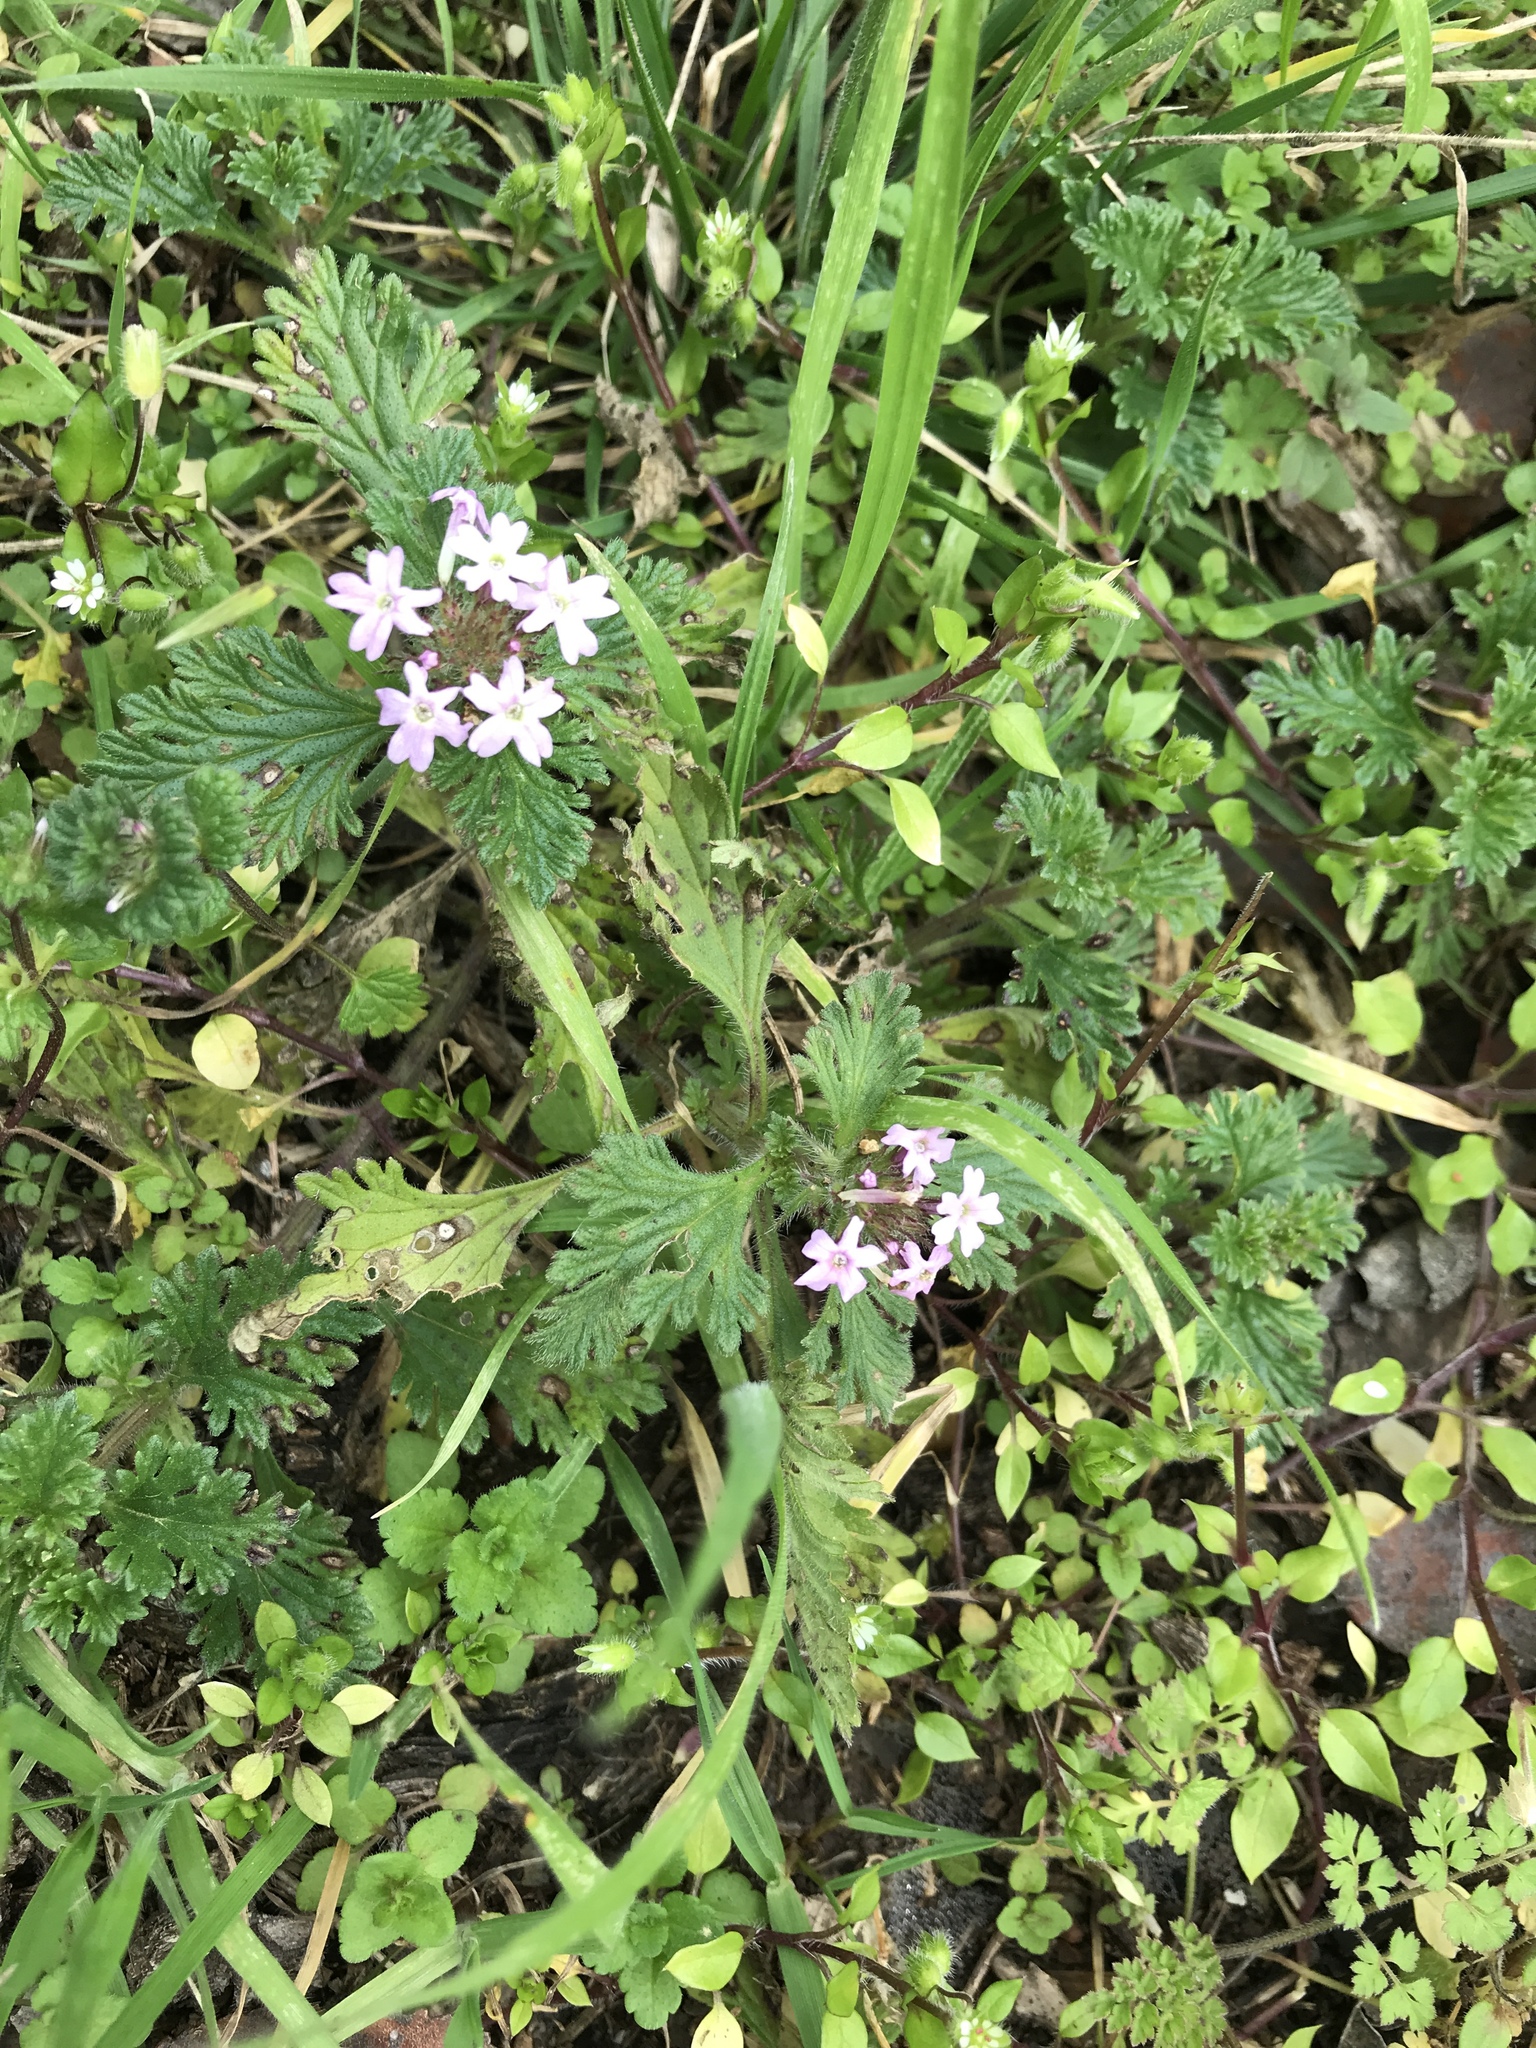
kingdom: Plantae
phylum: Tracheophyta
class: Magnoliopsida
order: Lamiales
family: Verbenaceae
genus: Verbena
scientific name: Verbena pumila
